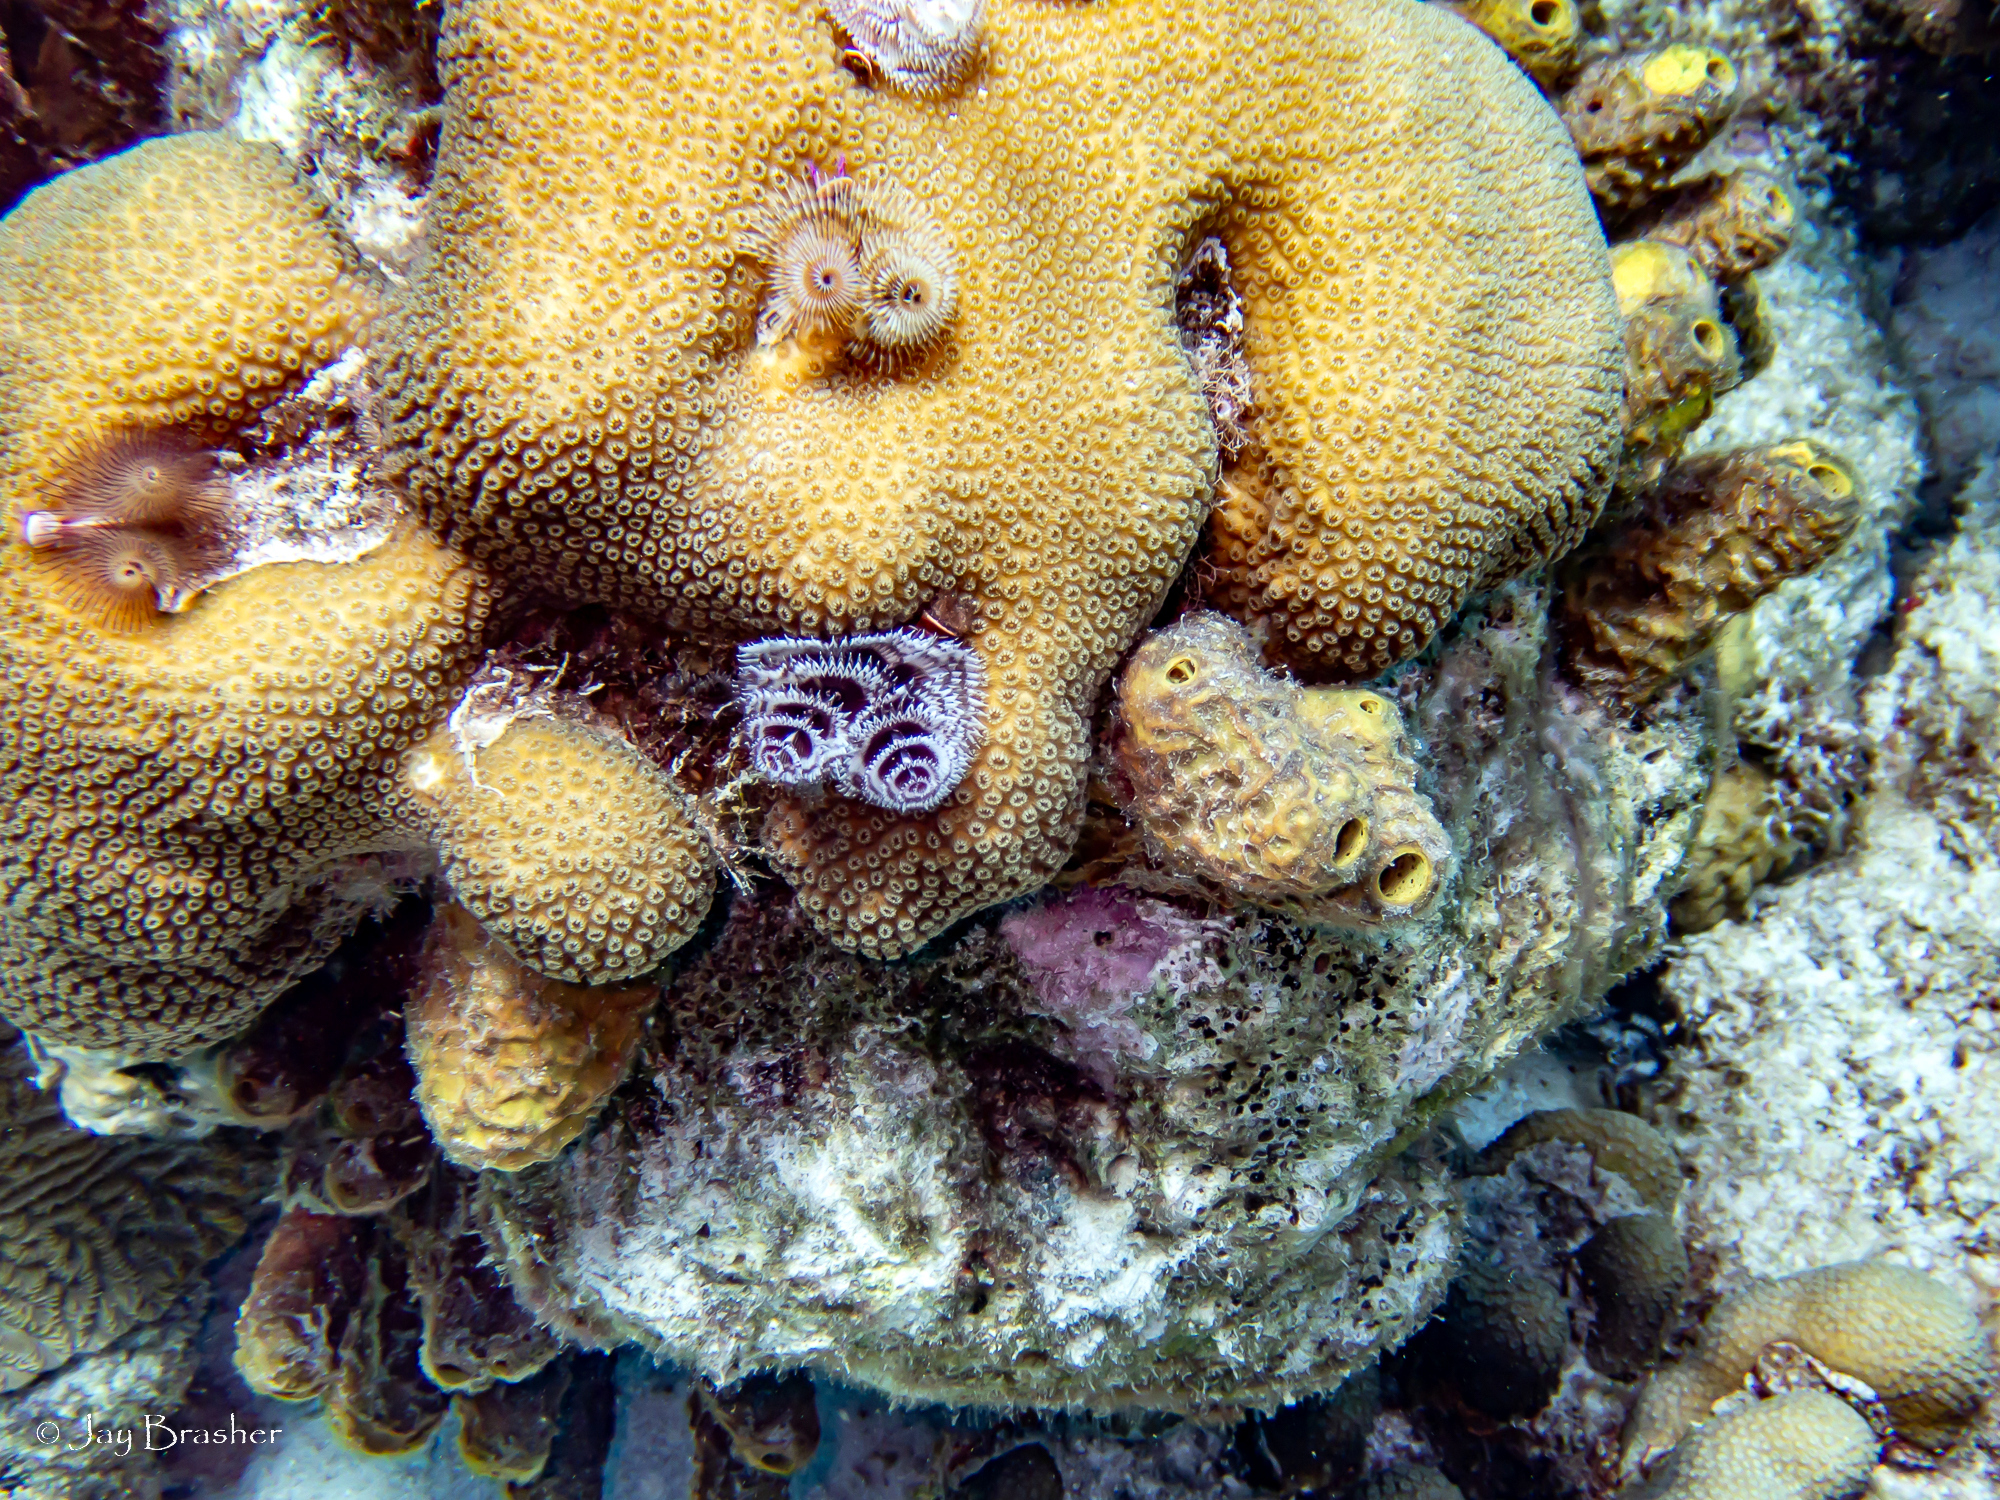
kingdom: Animalia
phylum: Porifera
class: Demospongiae
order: Verongiida
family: Aplysinidae
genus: Verongula
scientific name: Verongula rigida
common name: Pitted sponge
